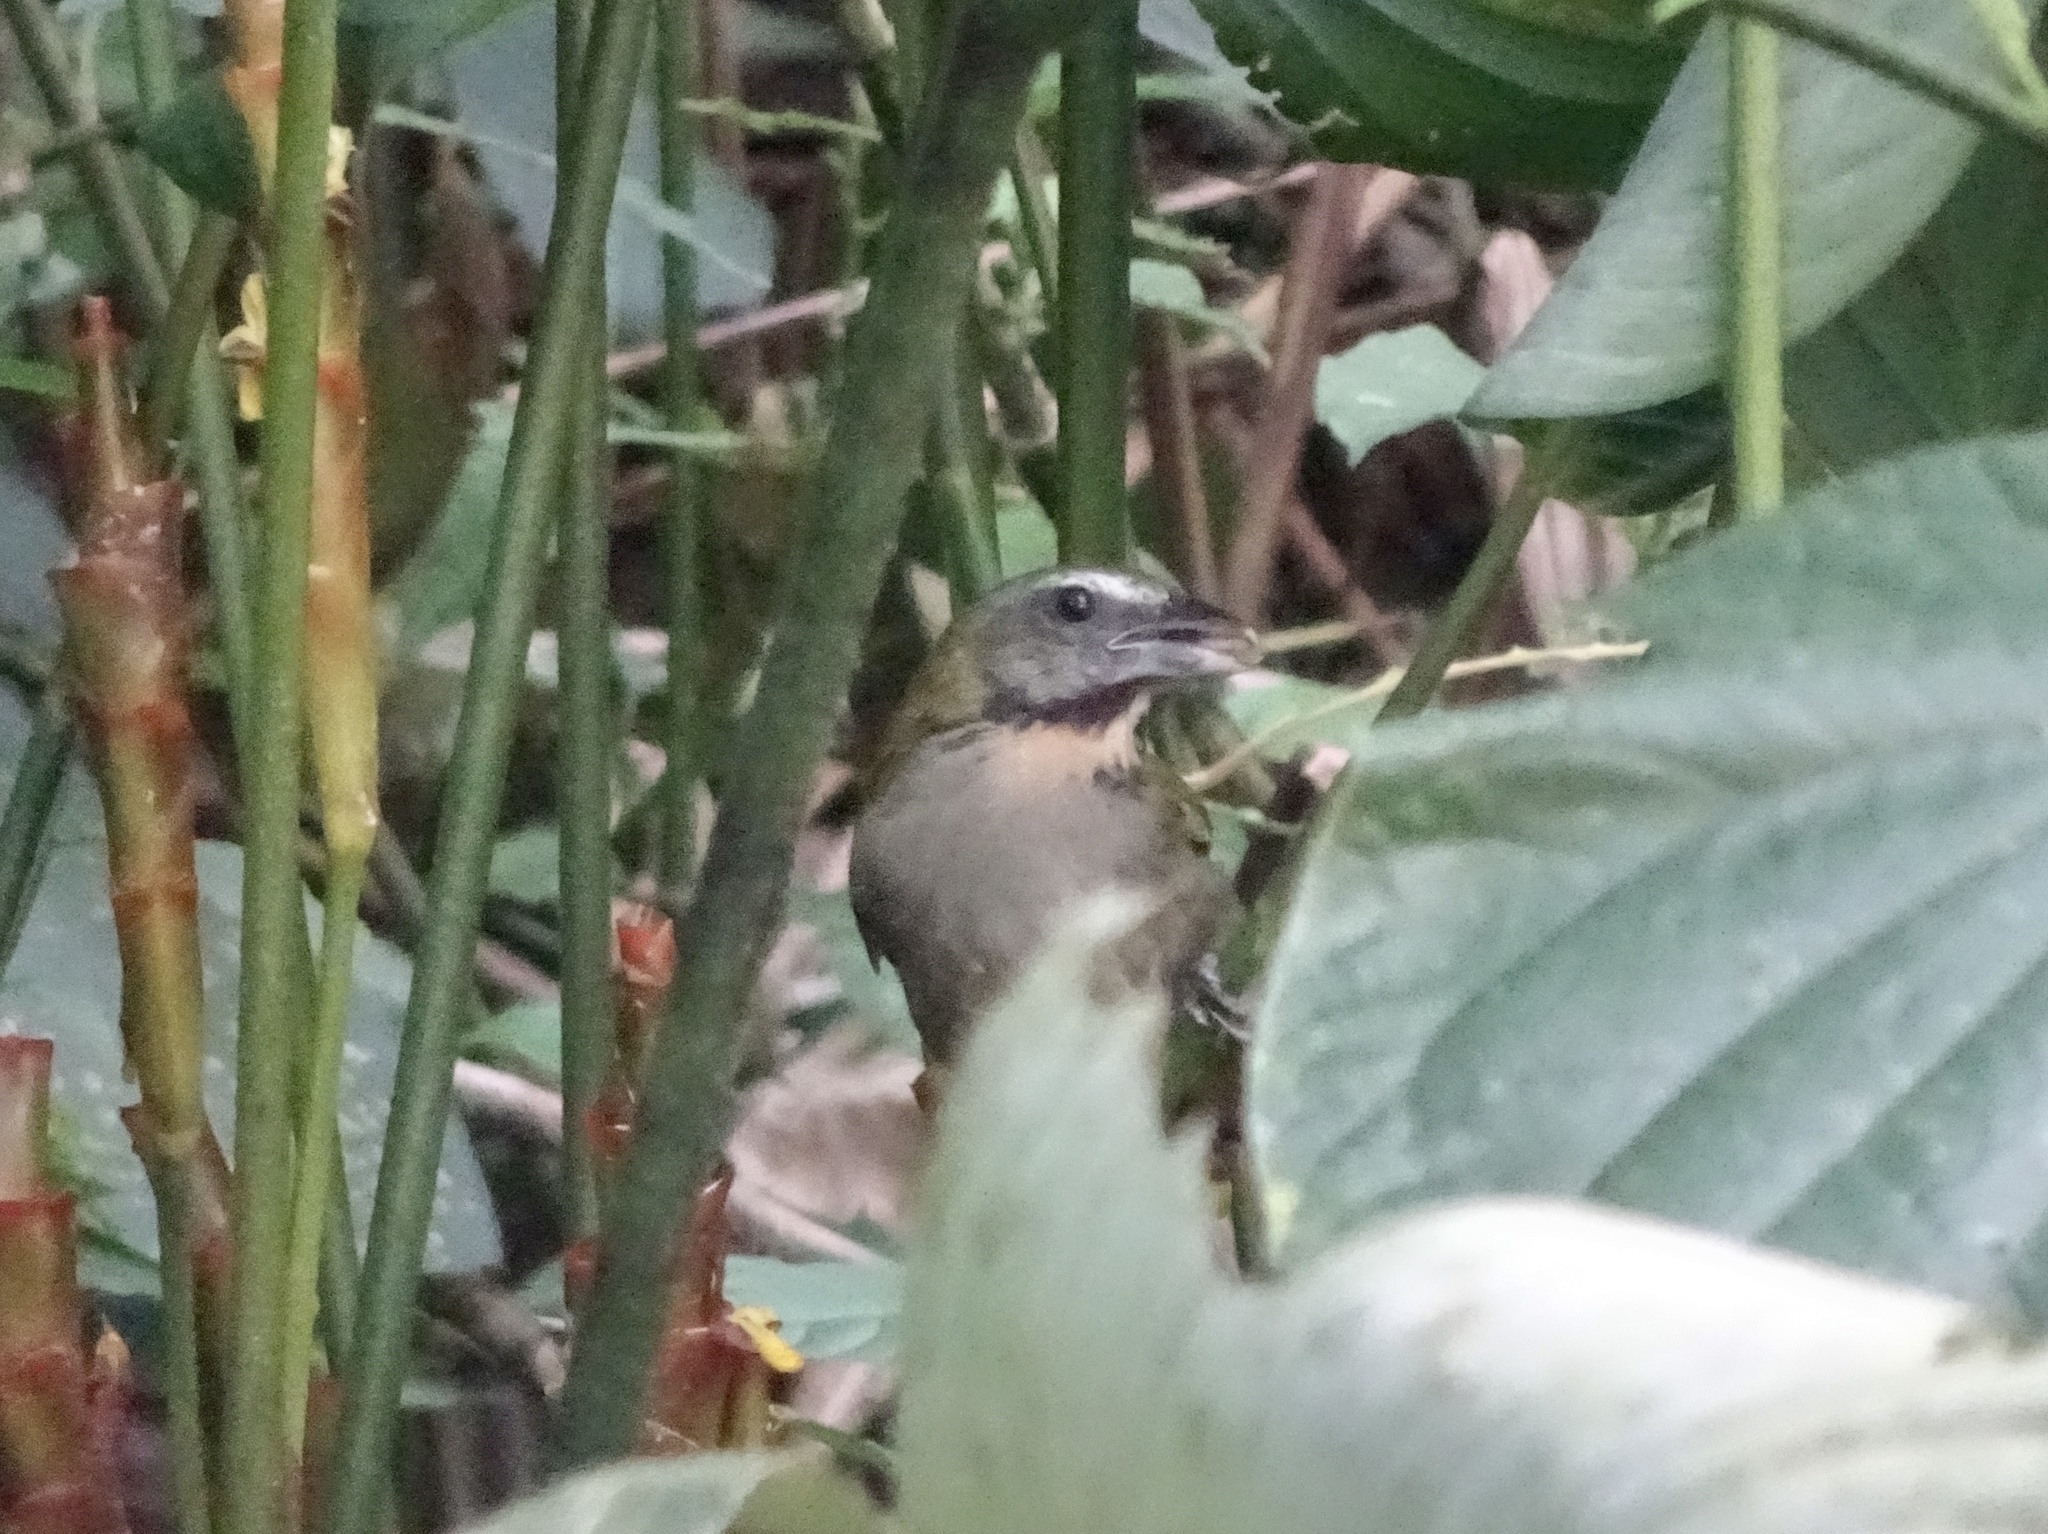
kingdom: Animalia
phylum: Chordata
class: Aves
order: Passeriformes
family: Thraupidae
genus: Saltator
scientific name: Saltator maximus
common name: Buff-throated saltator
